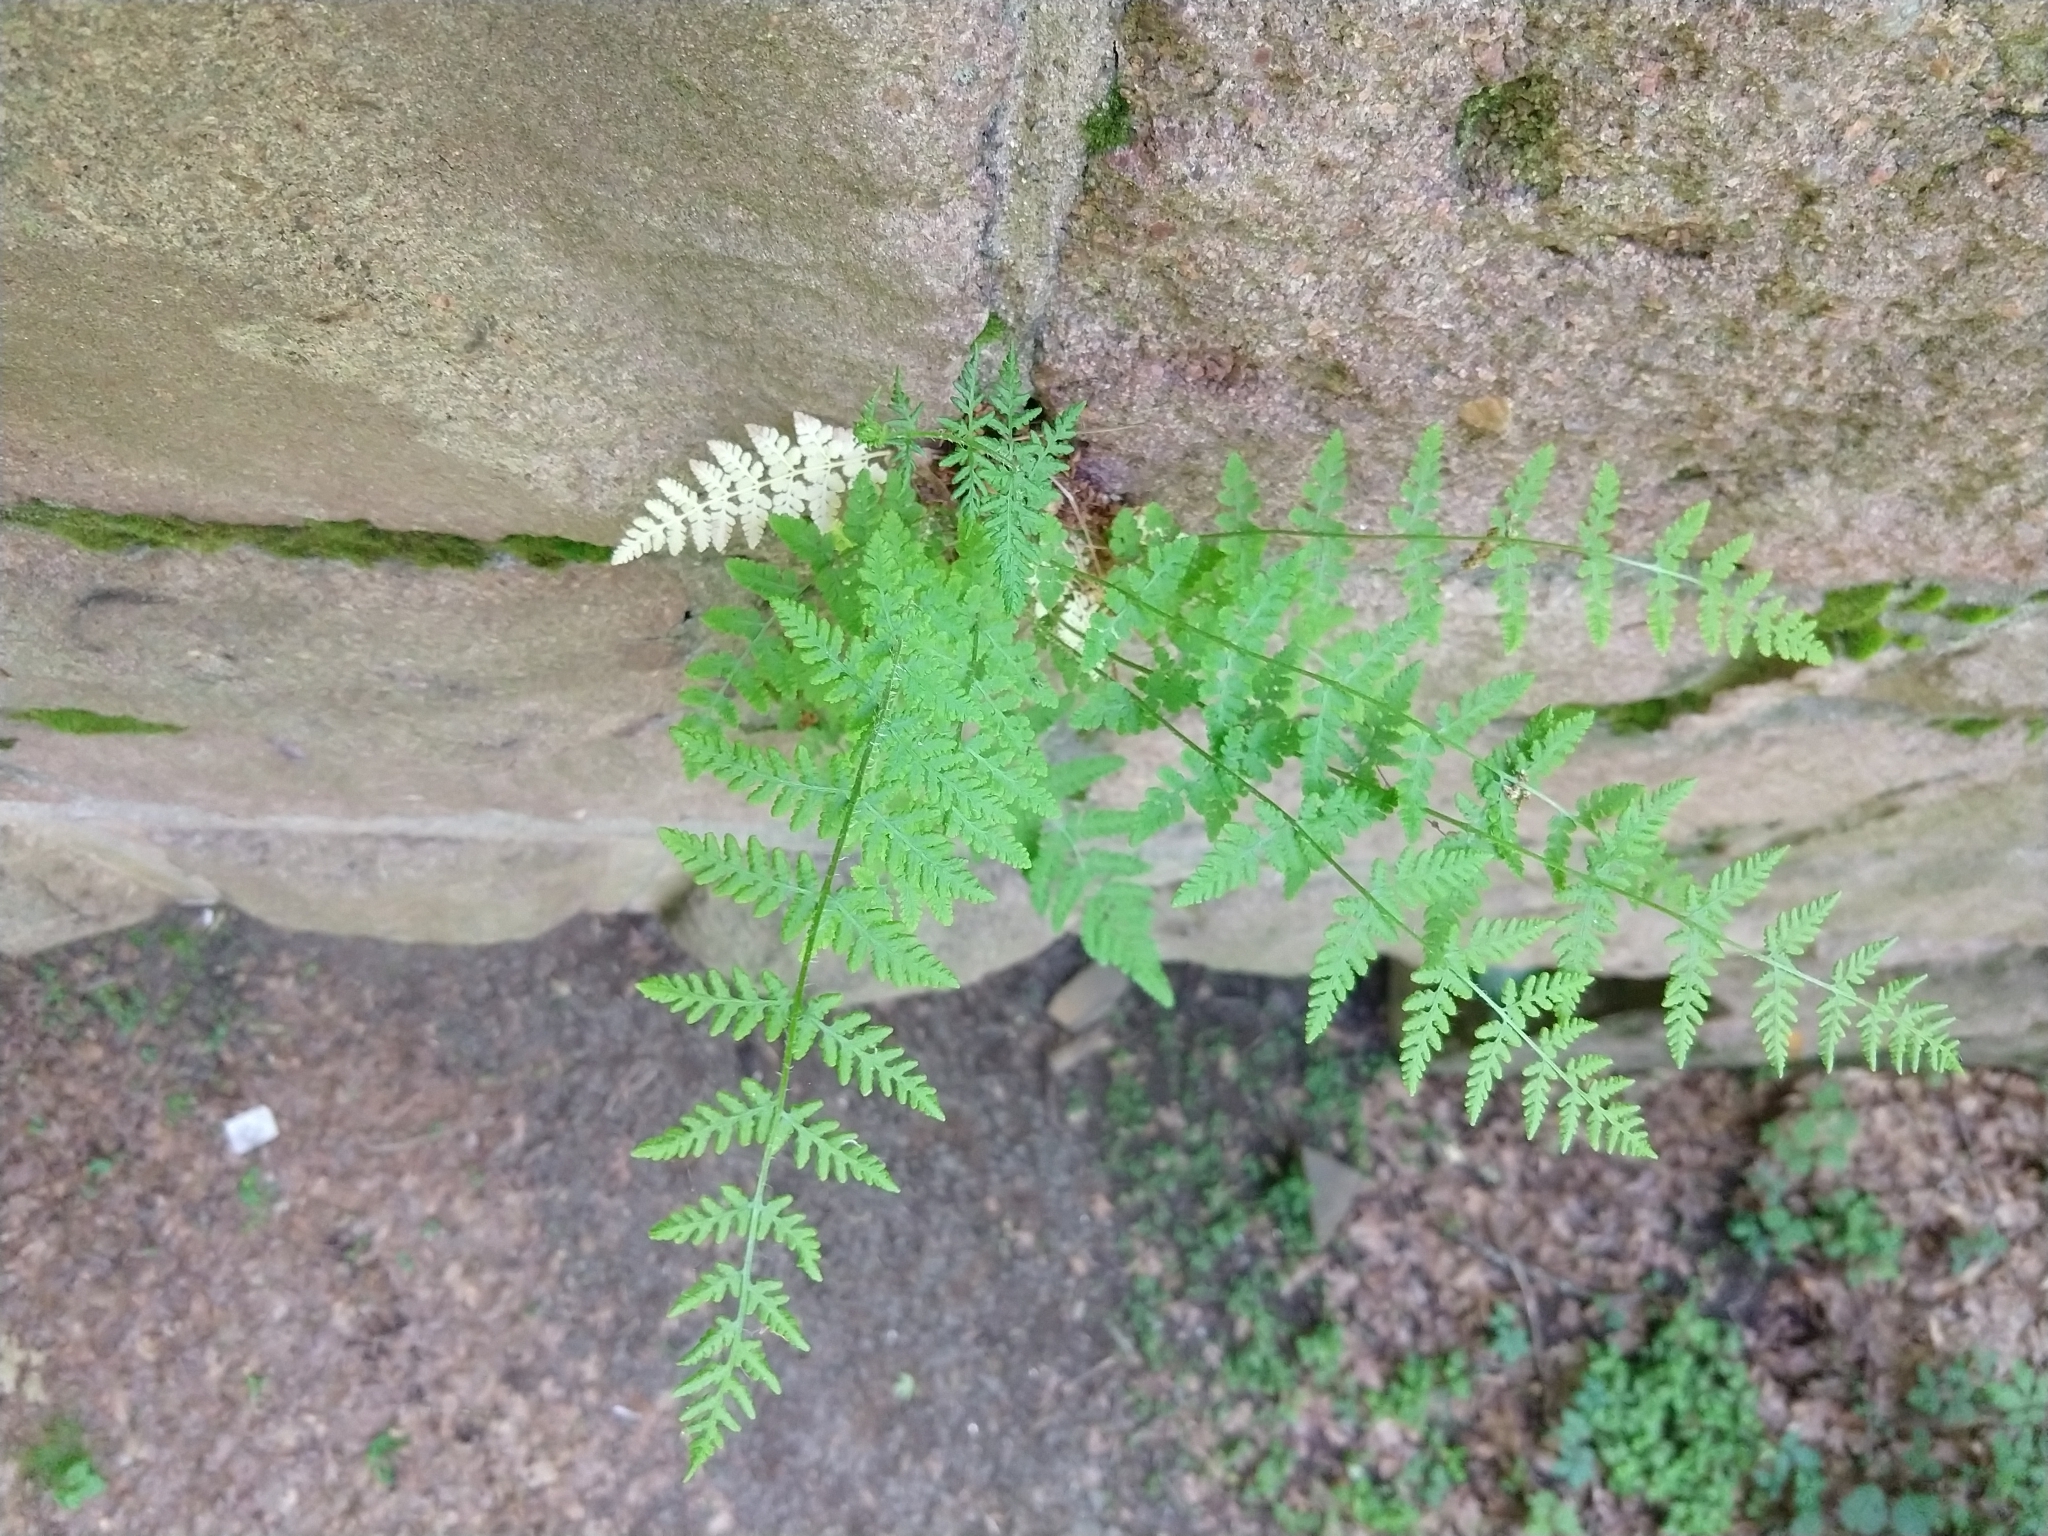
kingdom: Plantae
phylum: Tracheophyta
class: Polypodiopsida
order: Polypodiales
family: Woodsiaceae
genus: Physematium
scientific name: Physematium obtusum
